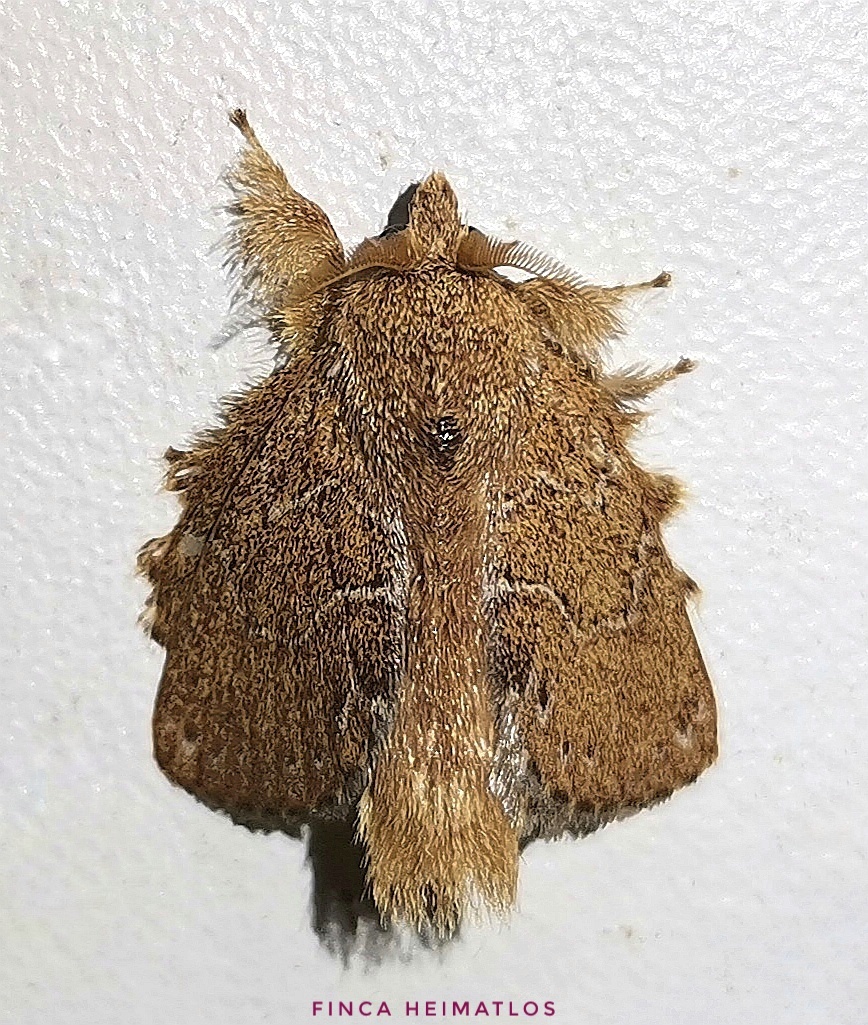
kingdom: Animalia
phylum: Arthropoda
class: Insecta
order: Lepidoptera
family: Lasiocampidae
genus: Euglyphis
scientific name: Euglyphis vitripuncta
